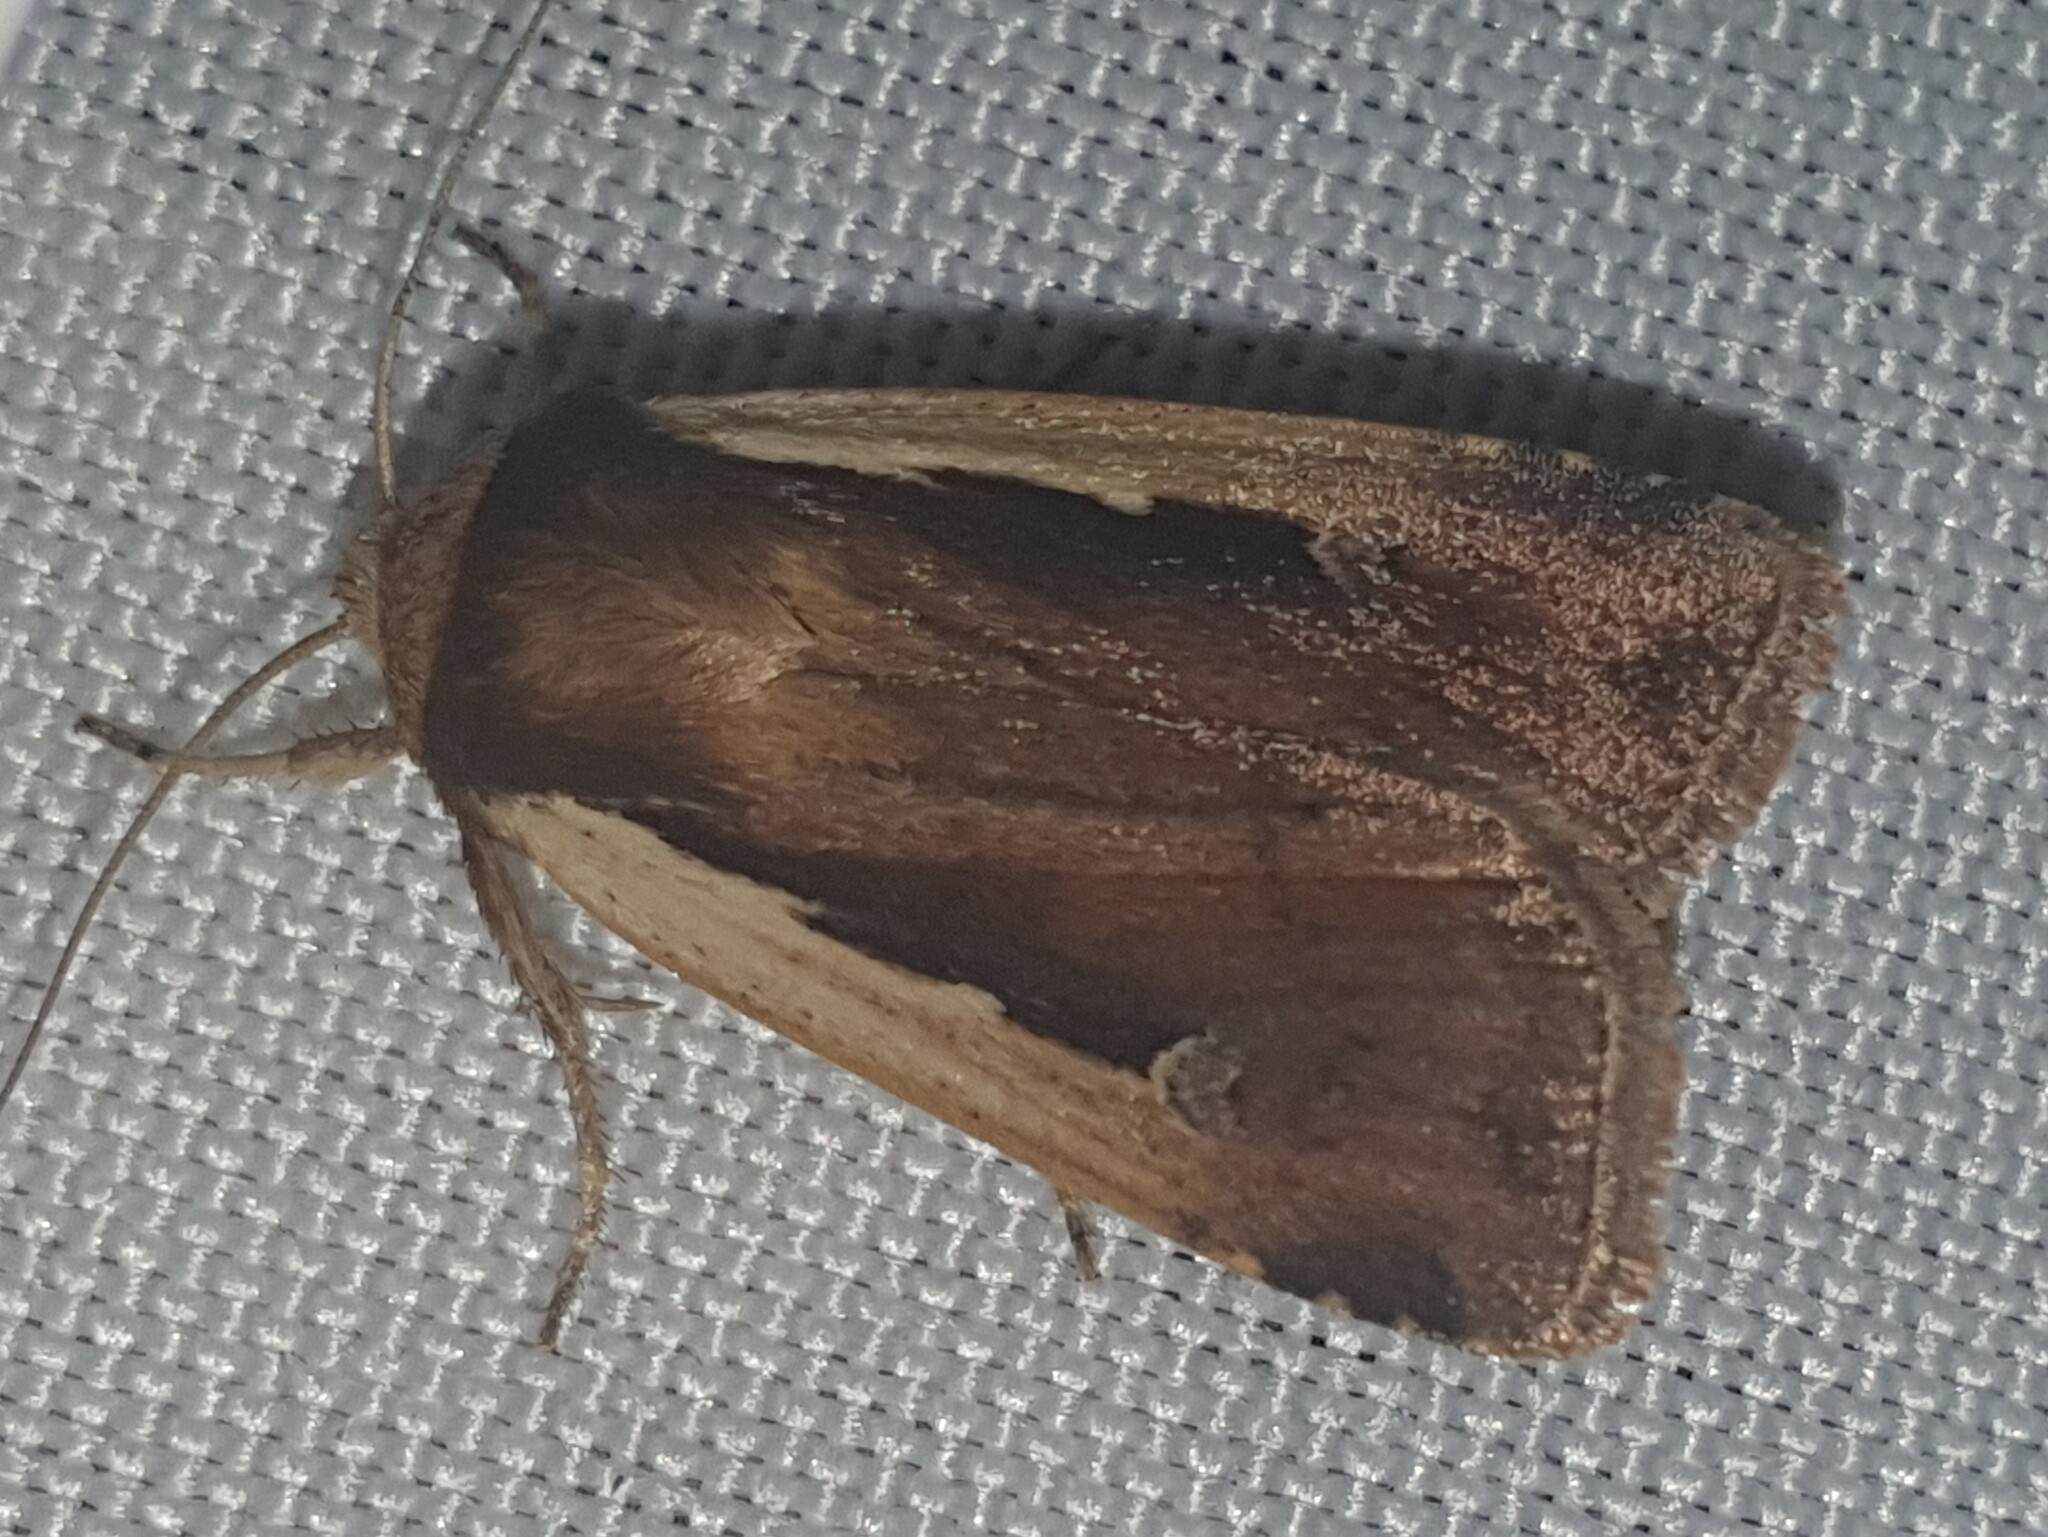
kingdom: Animalia
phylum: Arthropoda
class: Insecta
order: Lepidoptera
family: Noctuidae
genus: Ochropleura
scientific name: Ochropleura plecta
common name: Flame shoulder
